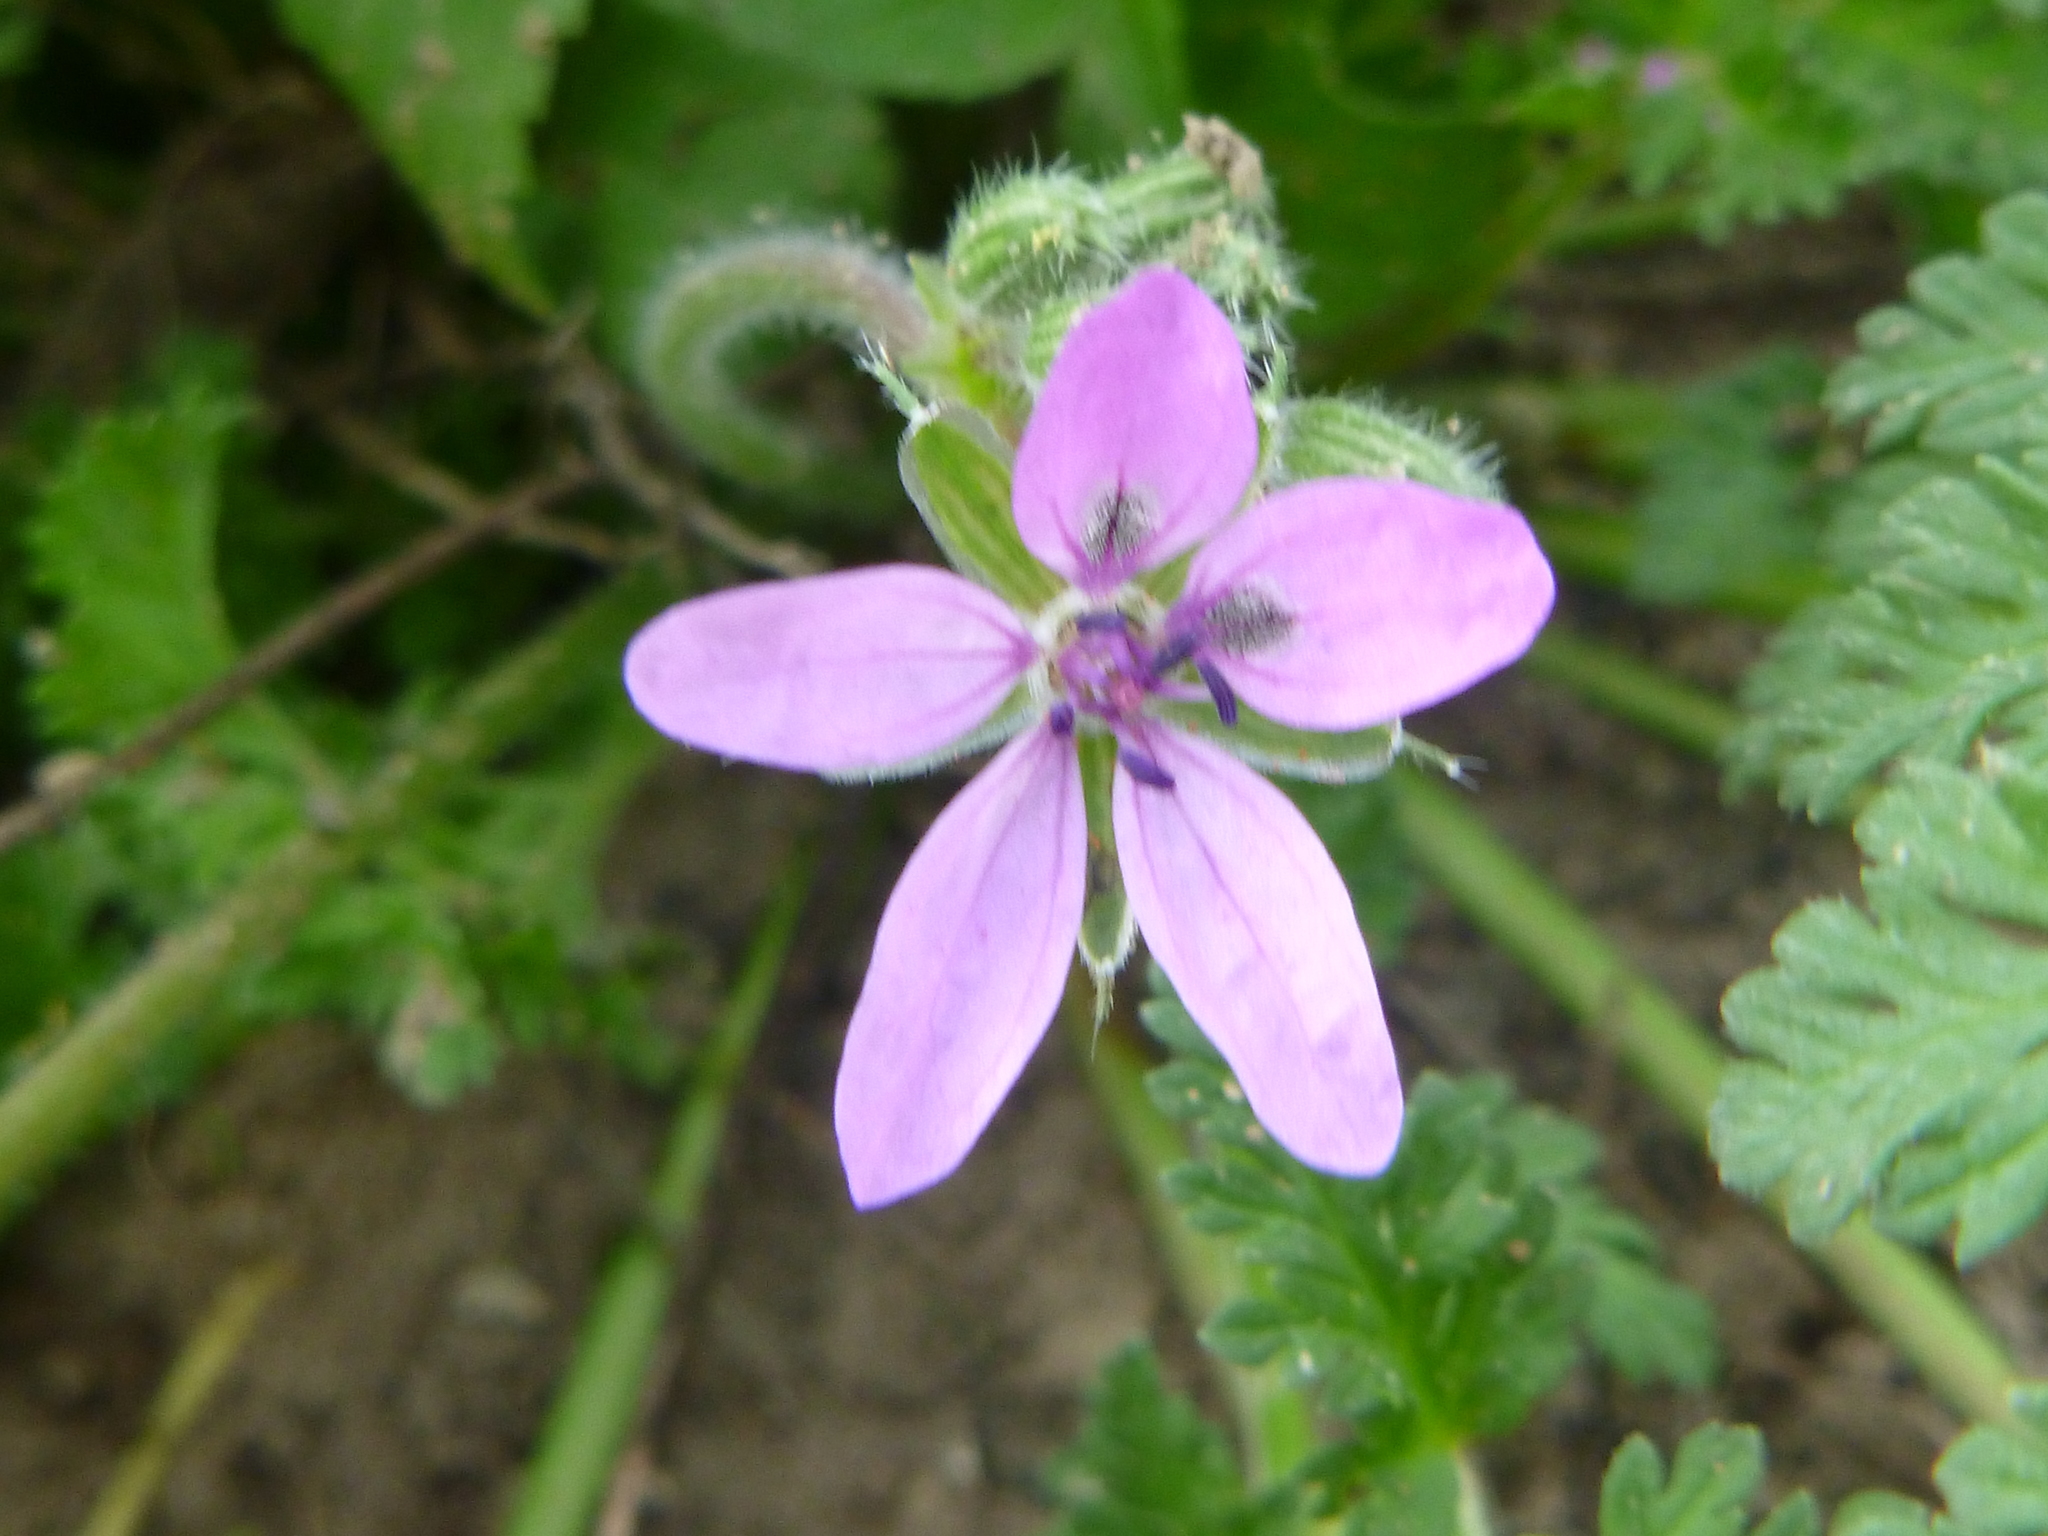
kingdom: Plantae
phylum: Tracheophyta
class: Magnoliopsida
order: Geraniales
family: Geraniaceae
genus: Erodium
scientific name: Erodium cicutarium
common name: Common stork's-bill
